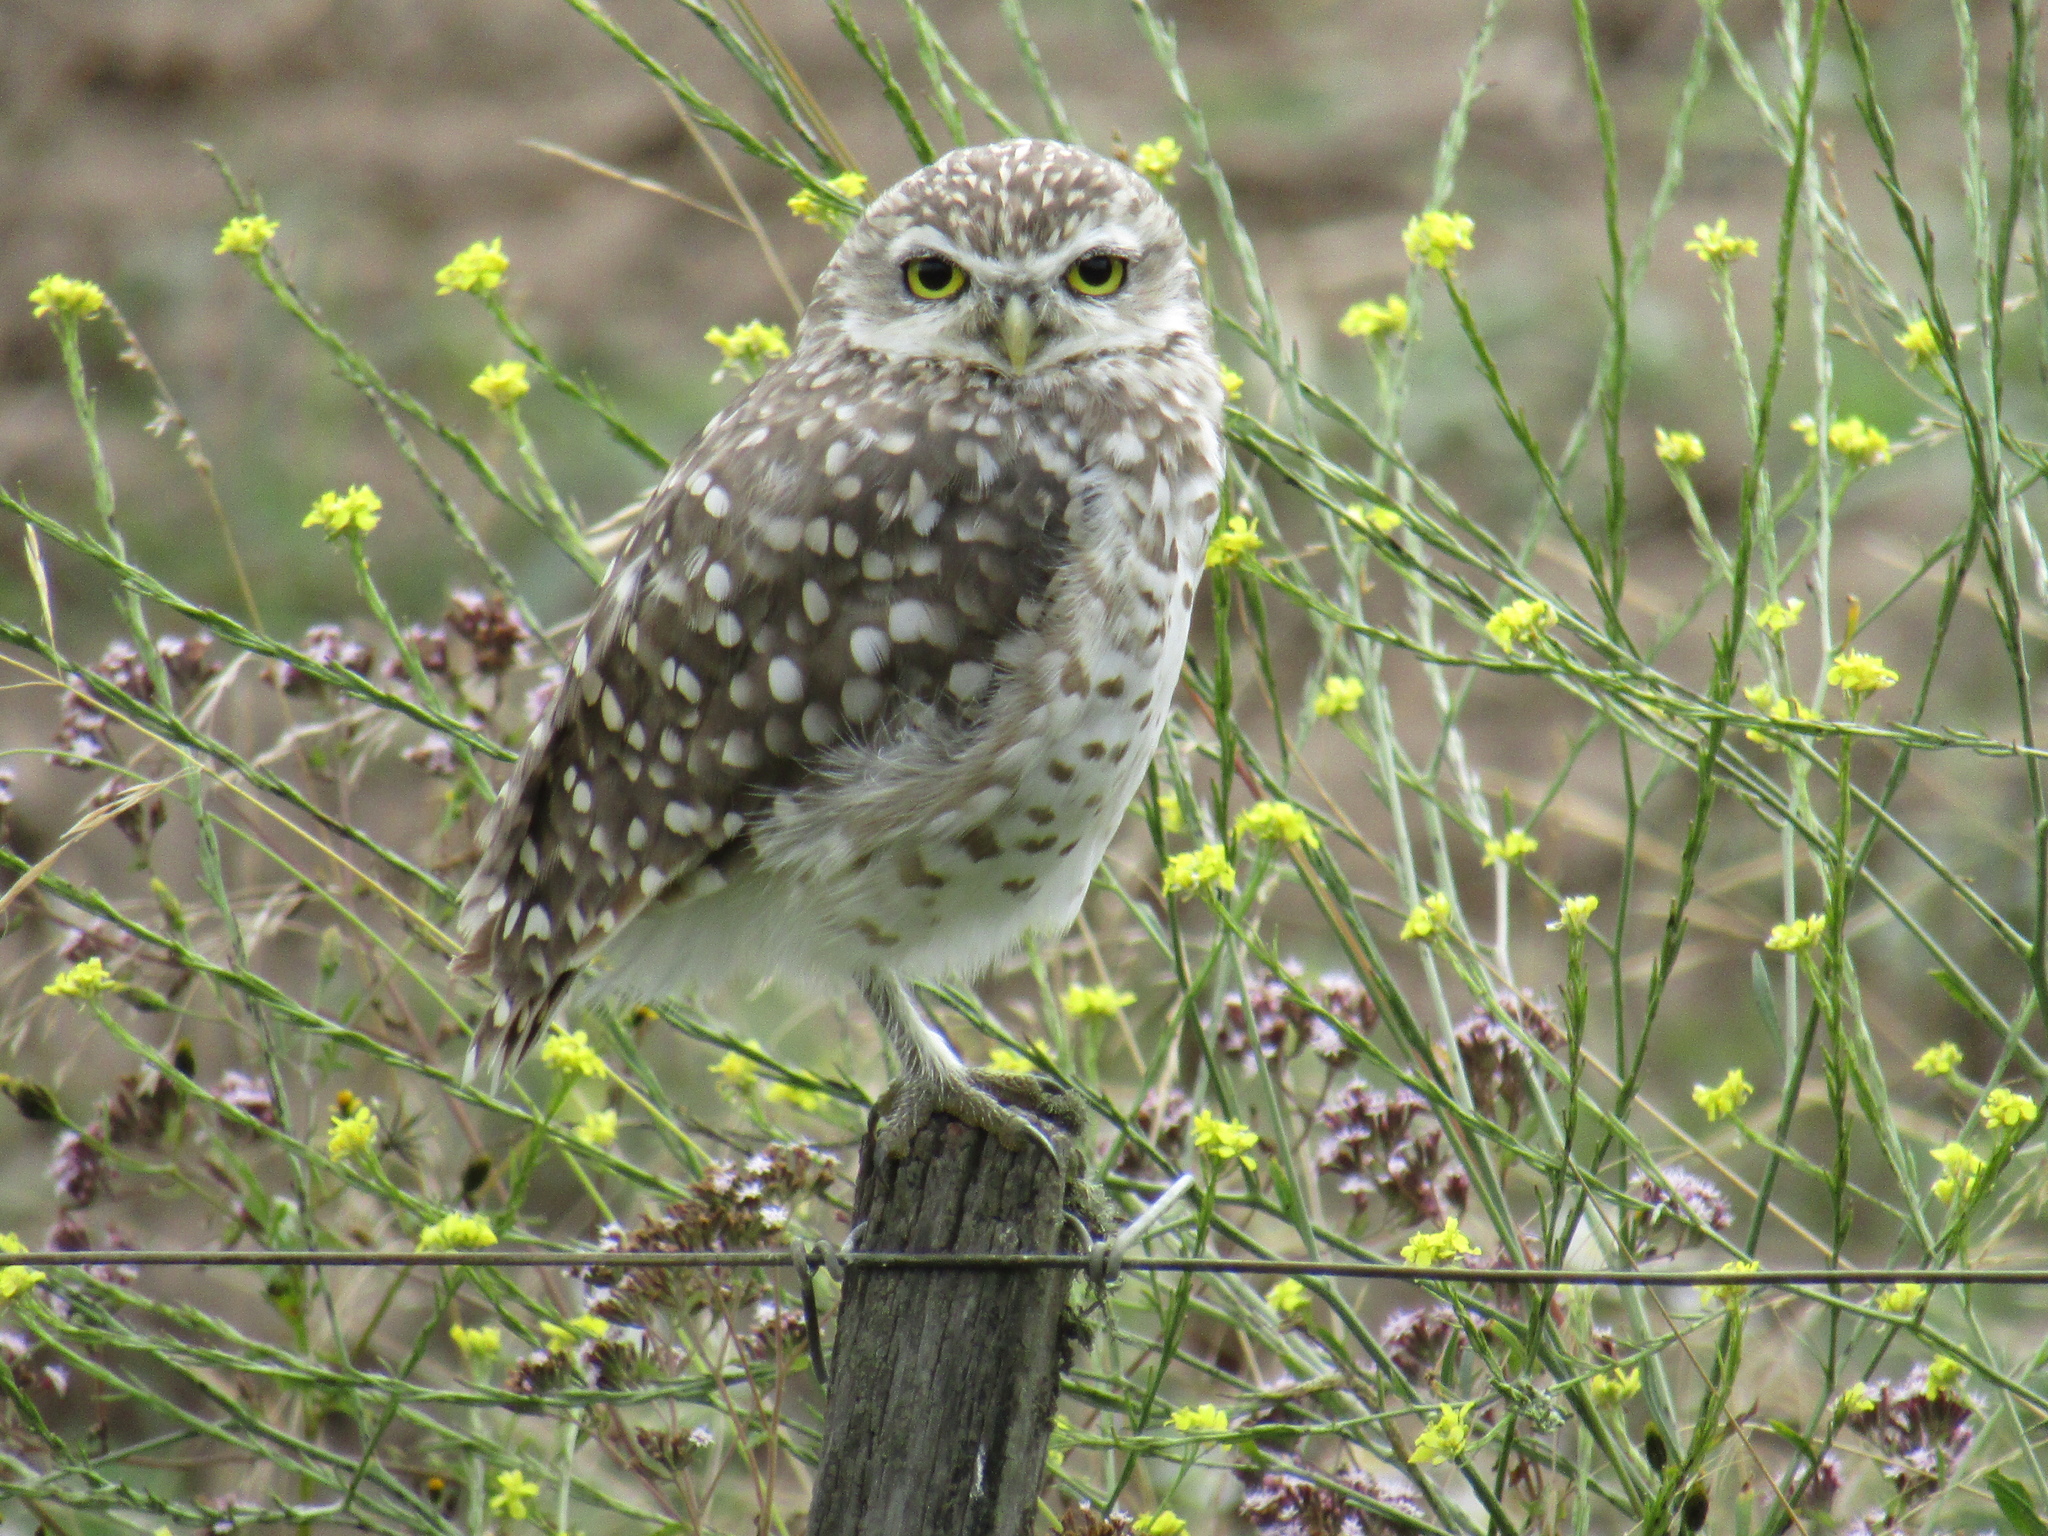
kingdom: Animalia
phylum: Chordata
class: Aves
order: Strigiformes
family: Strigidae
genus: Athene
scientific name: Athene cunicularia
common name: Burrowing owl
